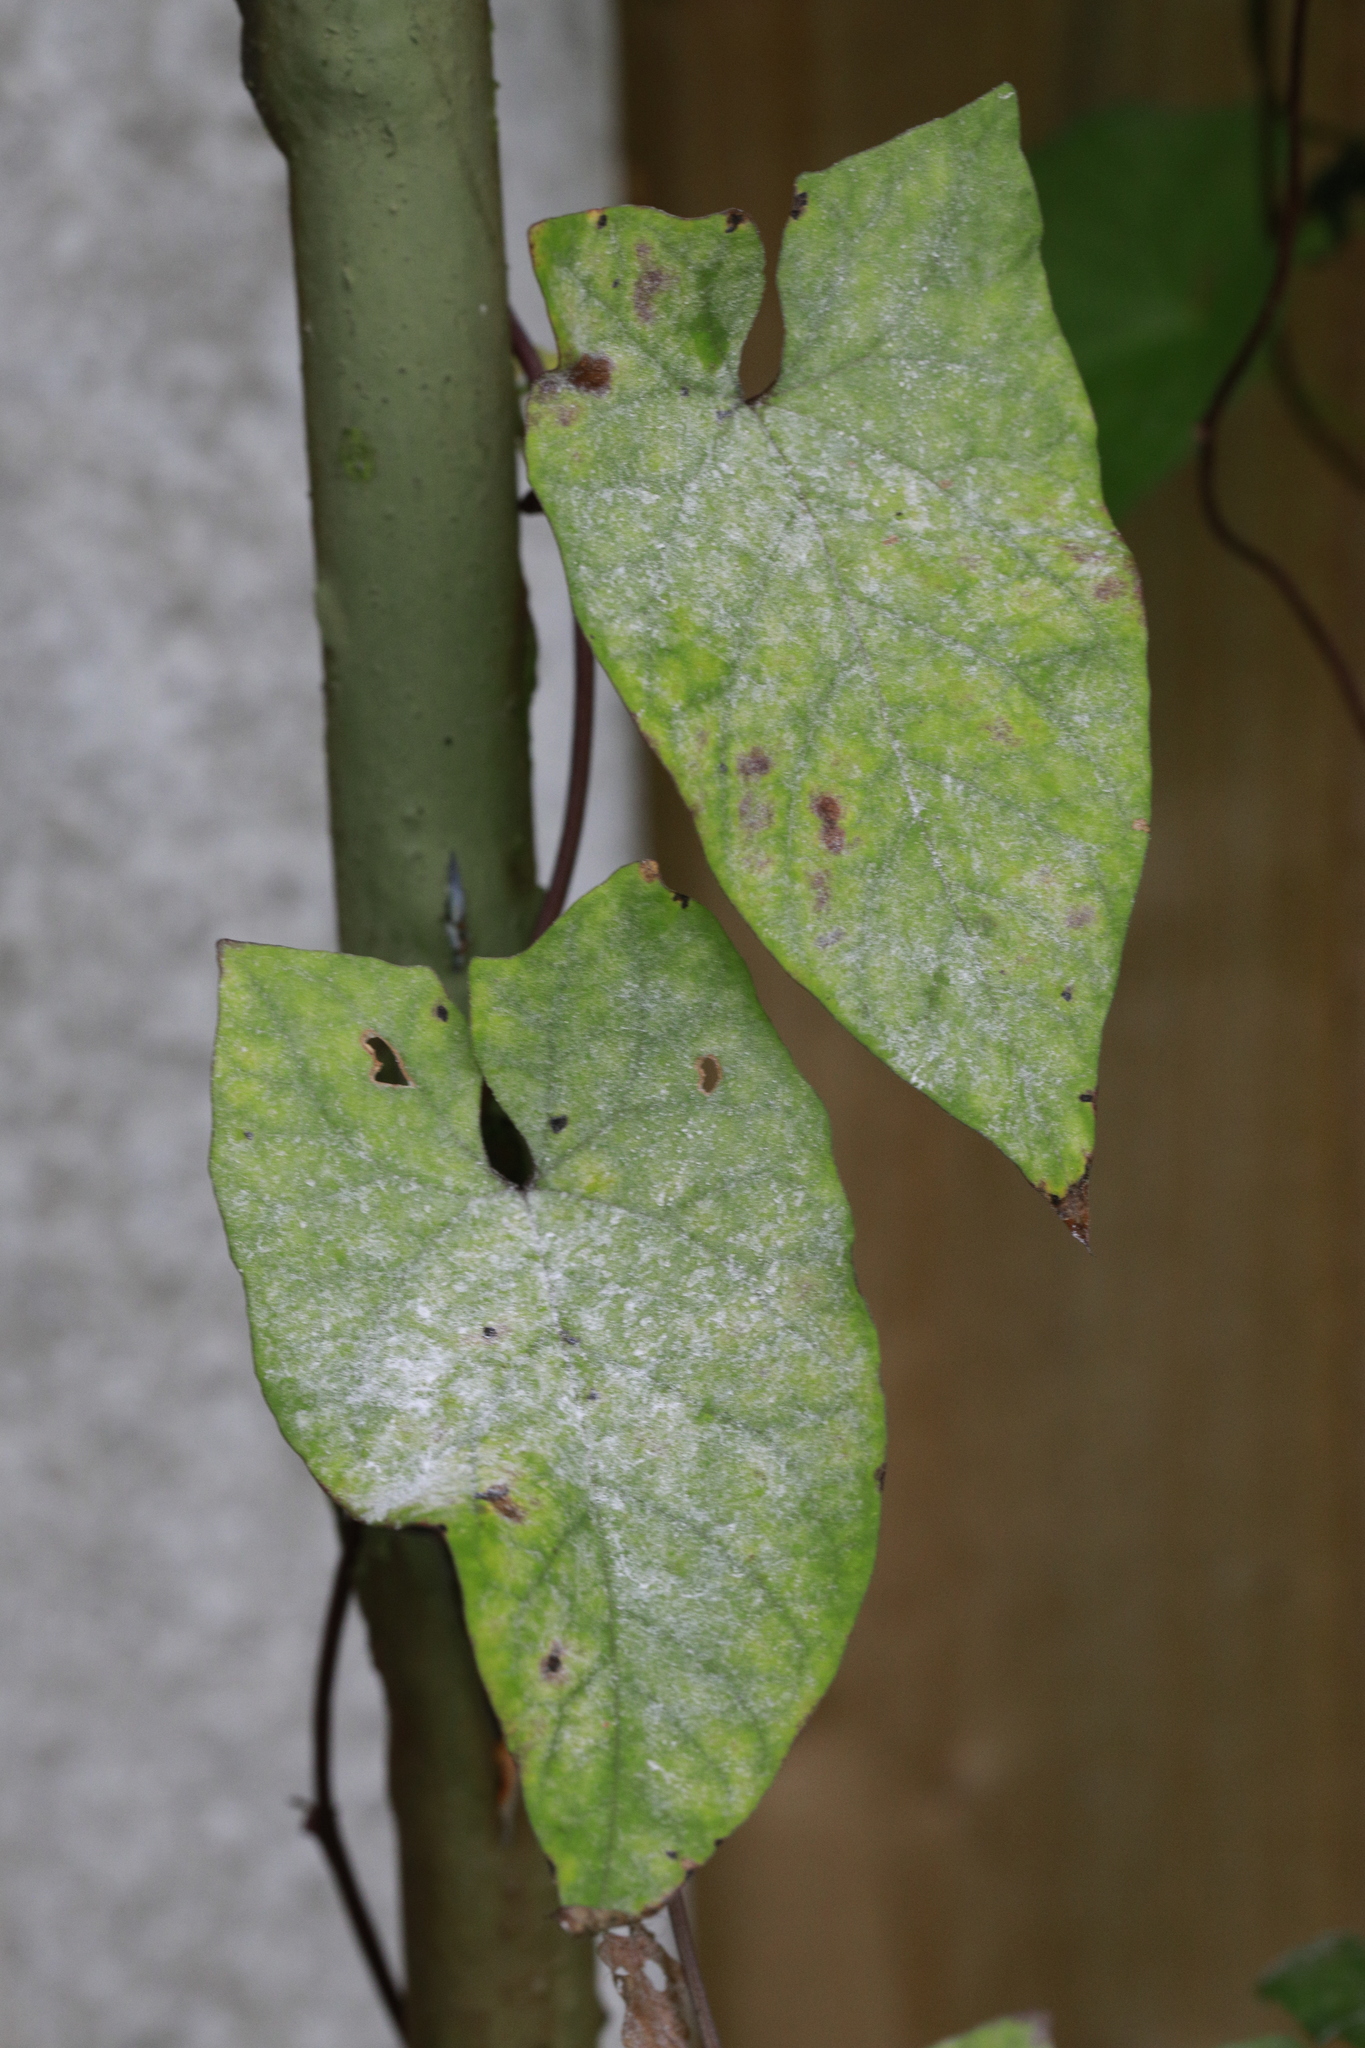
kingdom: Fungi
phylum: Ascomycota
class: Leotiomycetes
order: Helotiales
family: Erysiphaceae
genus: Erysiphe
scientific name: Erysiphe convolvuli
